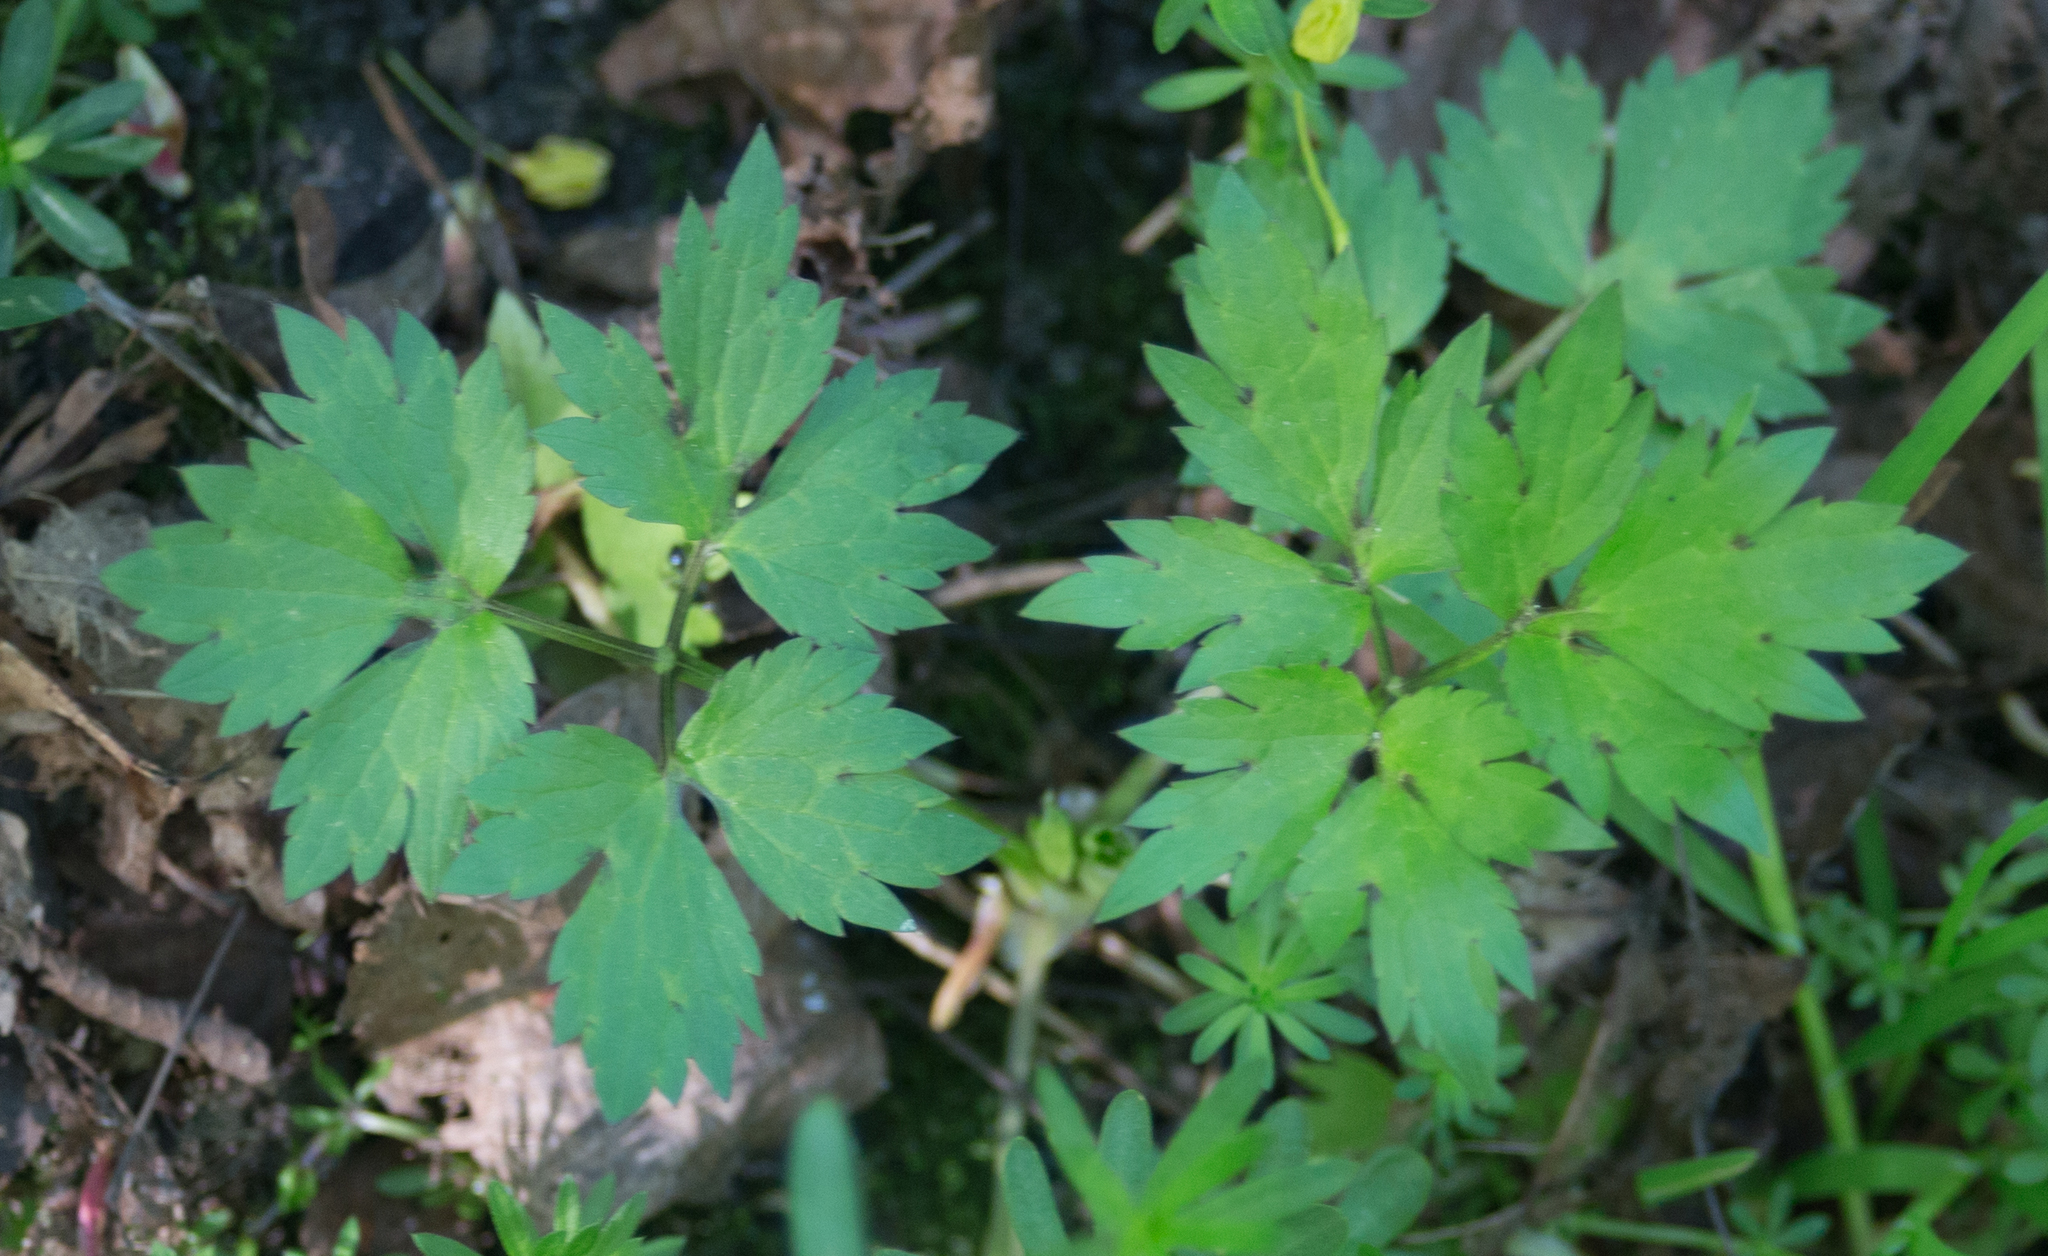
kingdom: Plantae
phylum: Tracheophyta
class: Magnoliopsida
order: Ranunculales
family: Ranunculaceae
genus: Ranunculus
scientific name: Ranunculus repens
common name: Creeping buttercup
